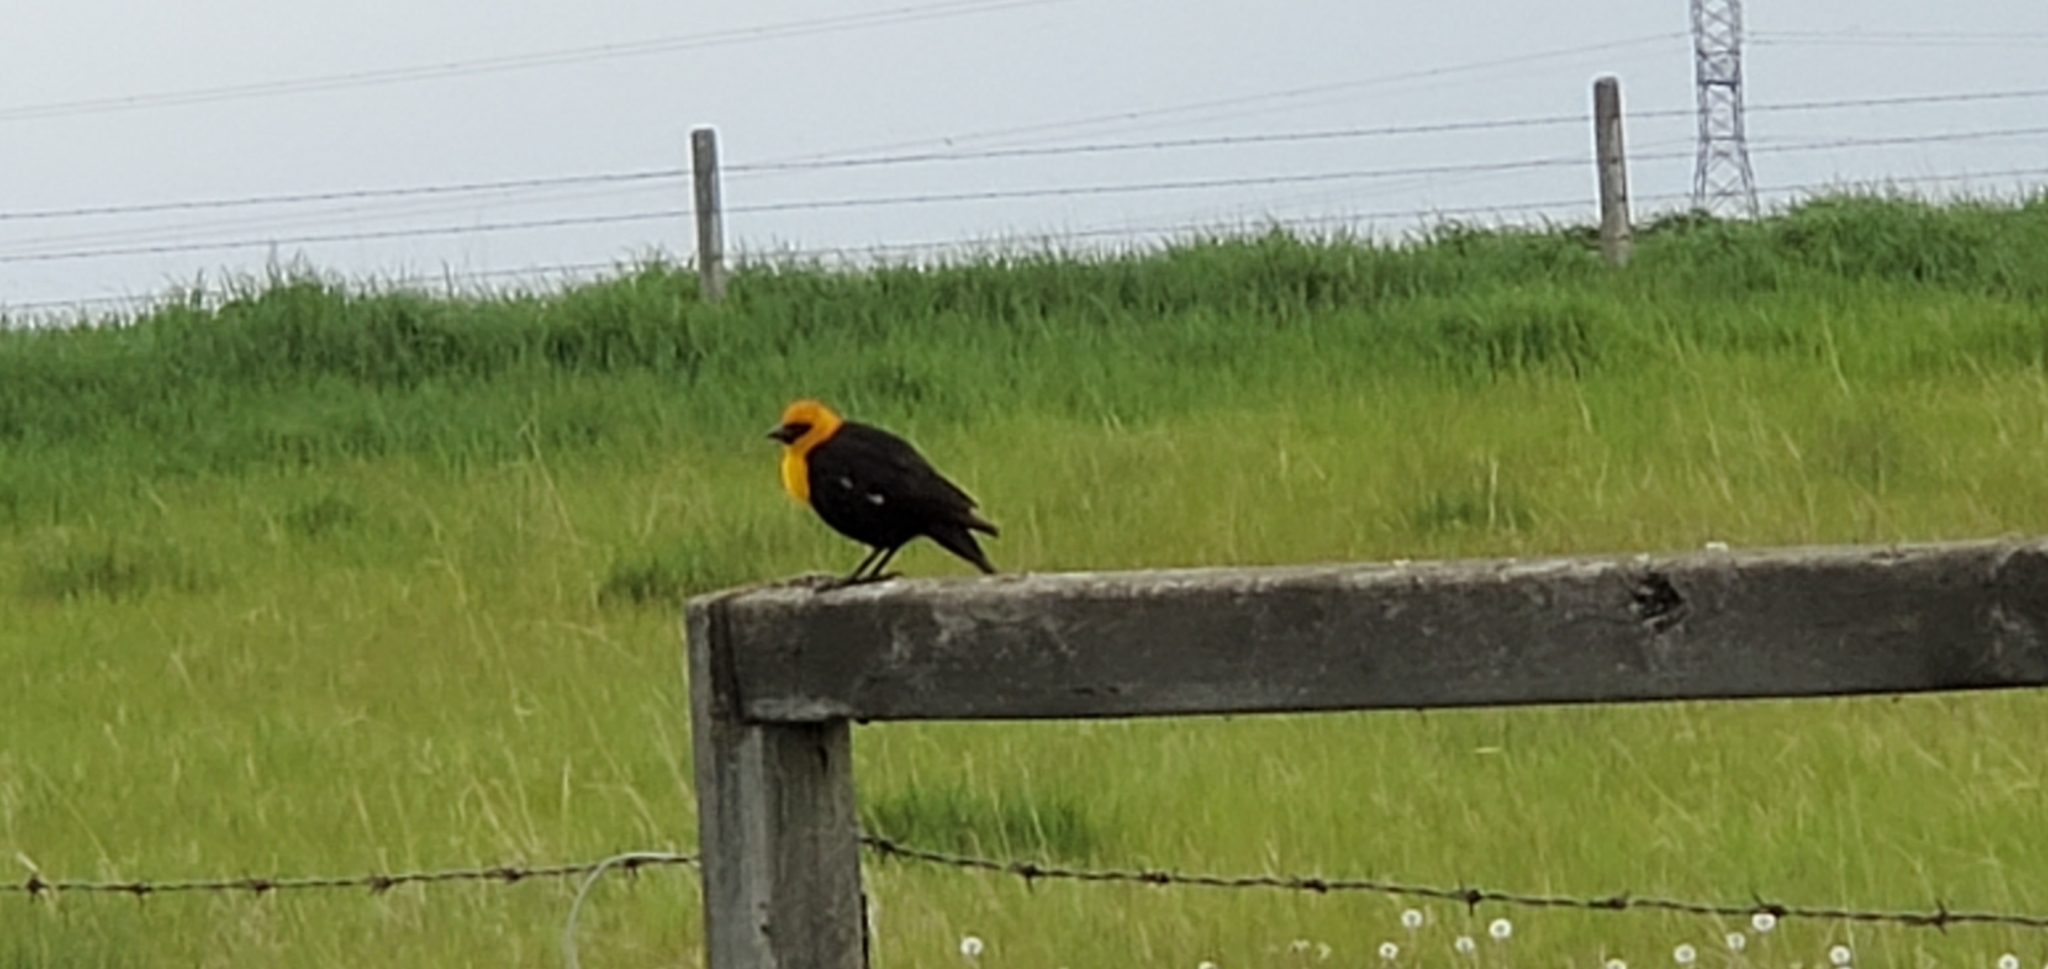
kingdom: Animalia
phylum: Chordata
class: Aves
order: Passeriformes
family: Icteridae
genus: Xanthocephalus
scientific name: Xanthocephalus xanthocephalus
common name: Yellow-headed blackbird
